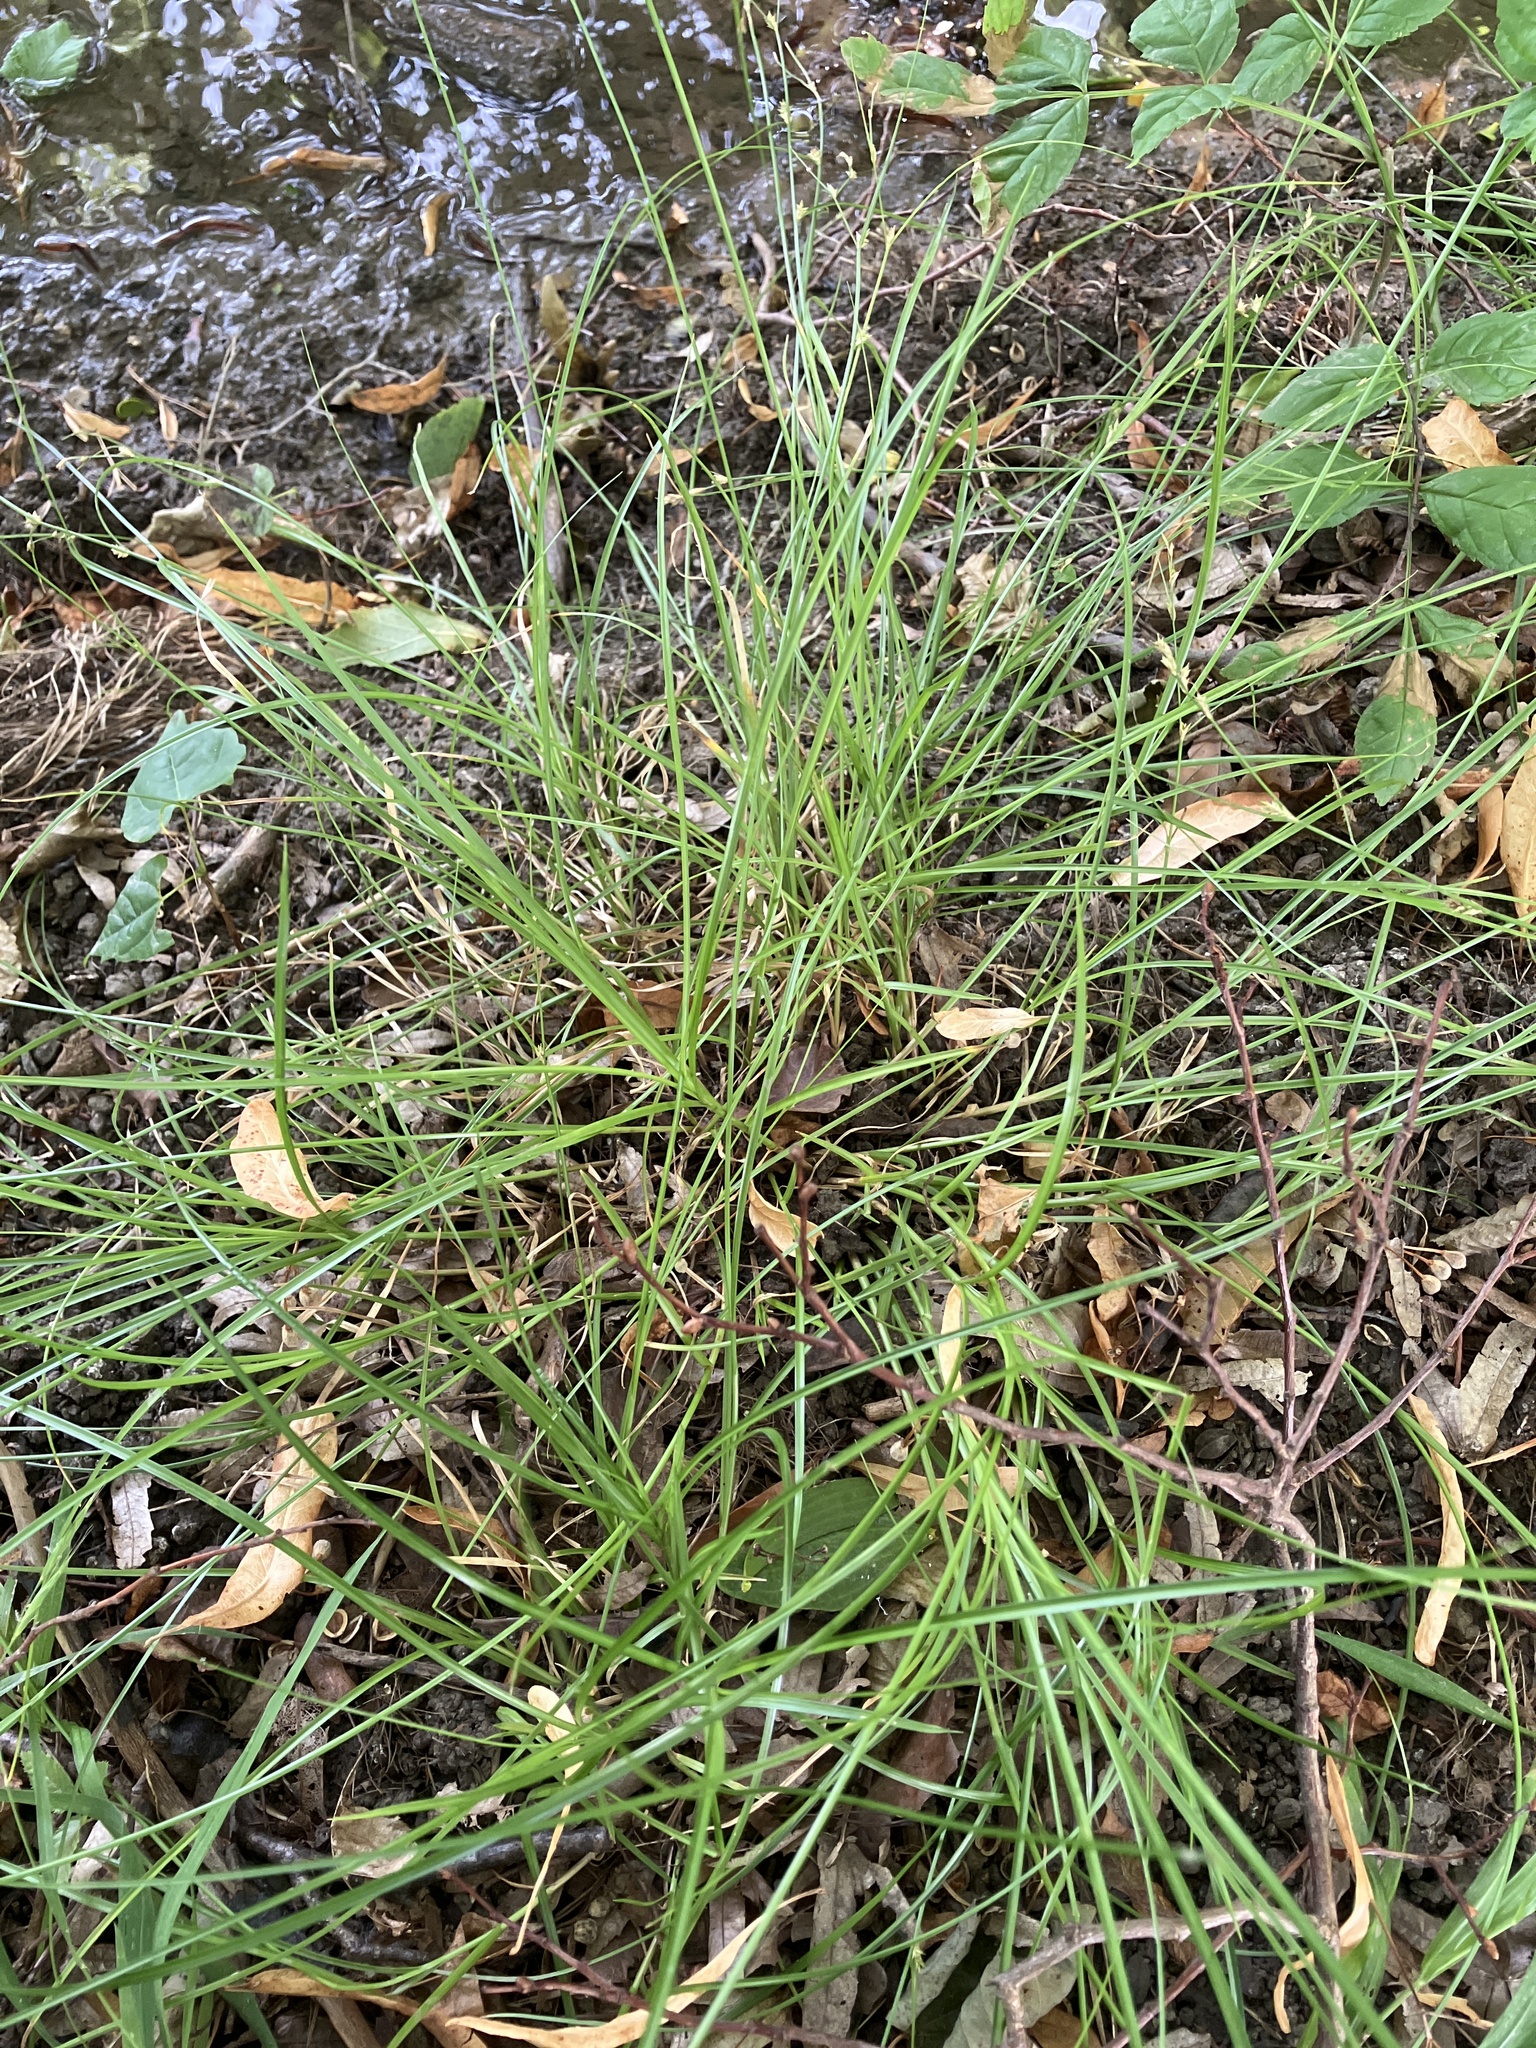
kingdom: Plantae
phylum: Tracheophyta
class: Liliopsida
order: Poales
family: Cyperaceae
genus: Carex
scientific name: Carex remota
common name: Remote sedge
